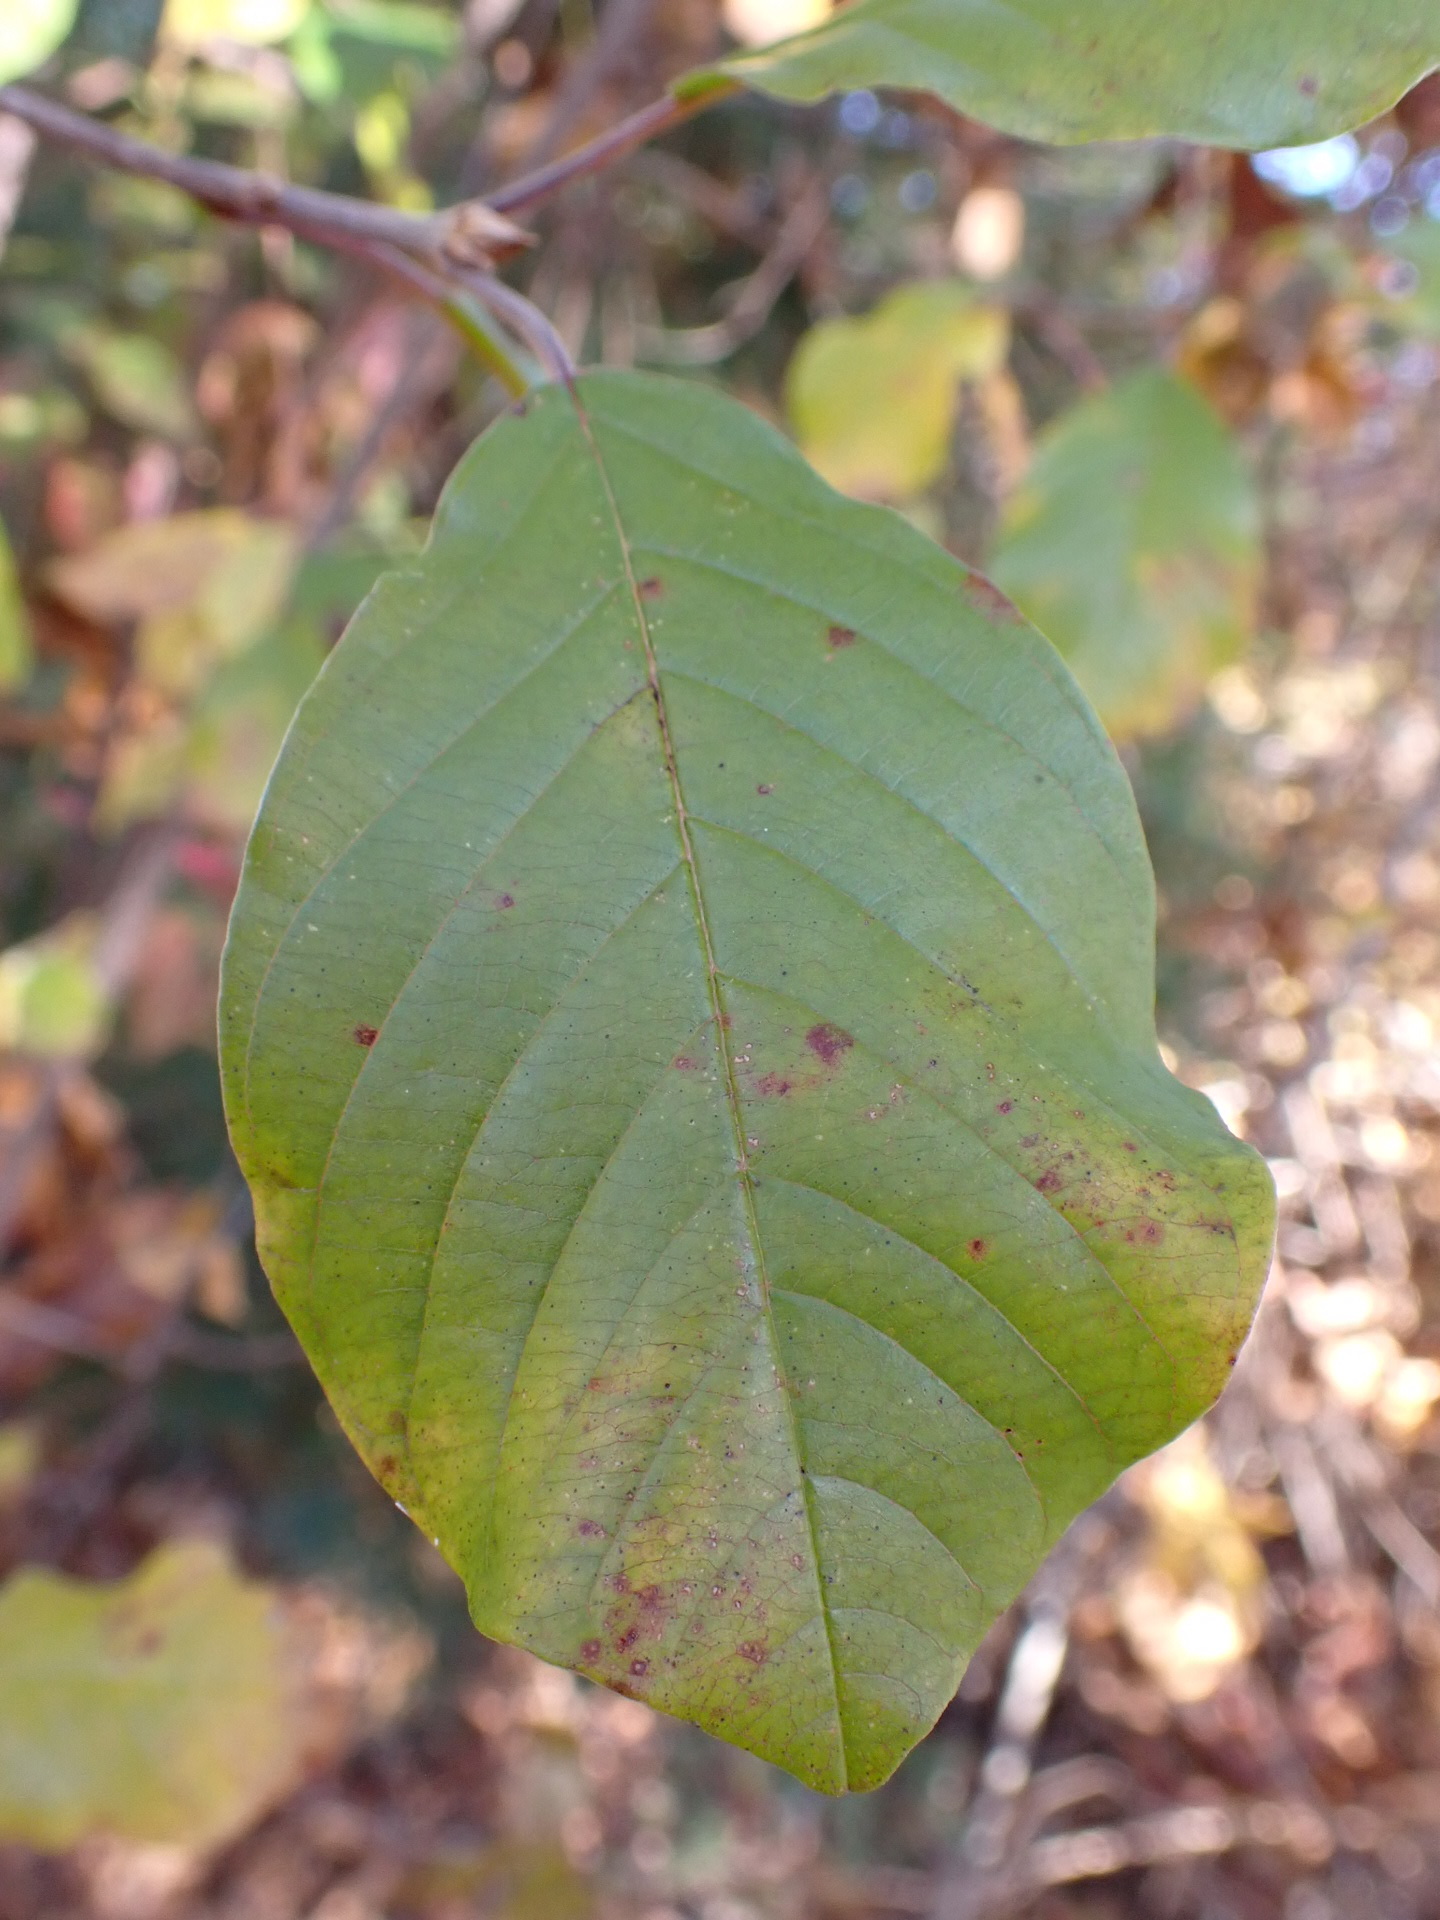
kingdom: Plantae
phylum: Tracheophyta
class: Magnoliopsida
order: Rosales
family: Rhamnaceae
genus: Frangula
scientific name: Frangula alnus
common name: Alder buckthorn
